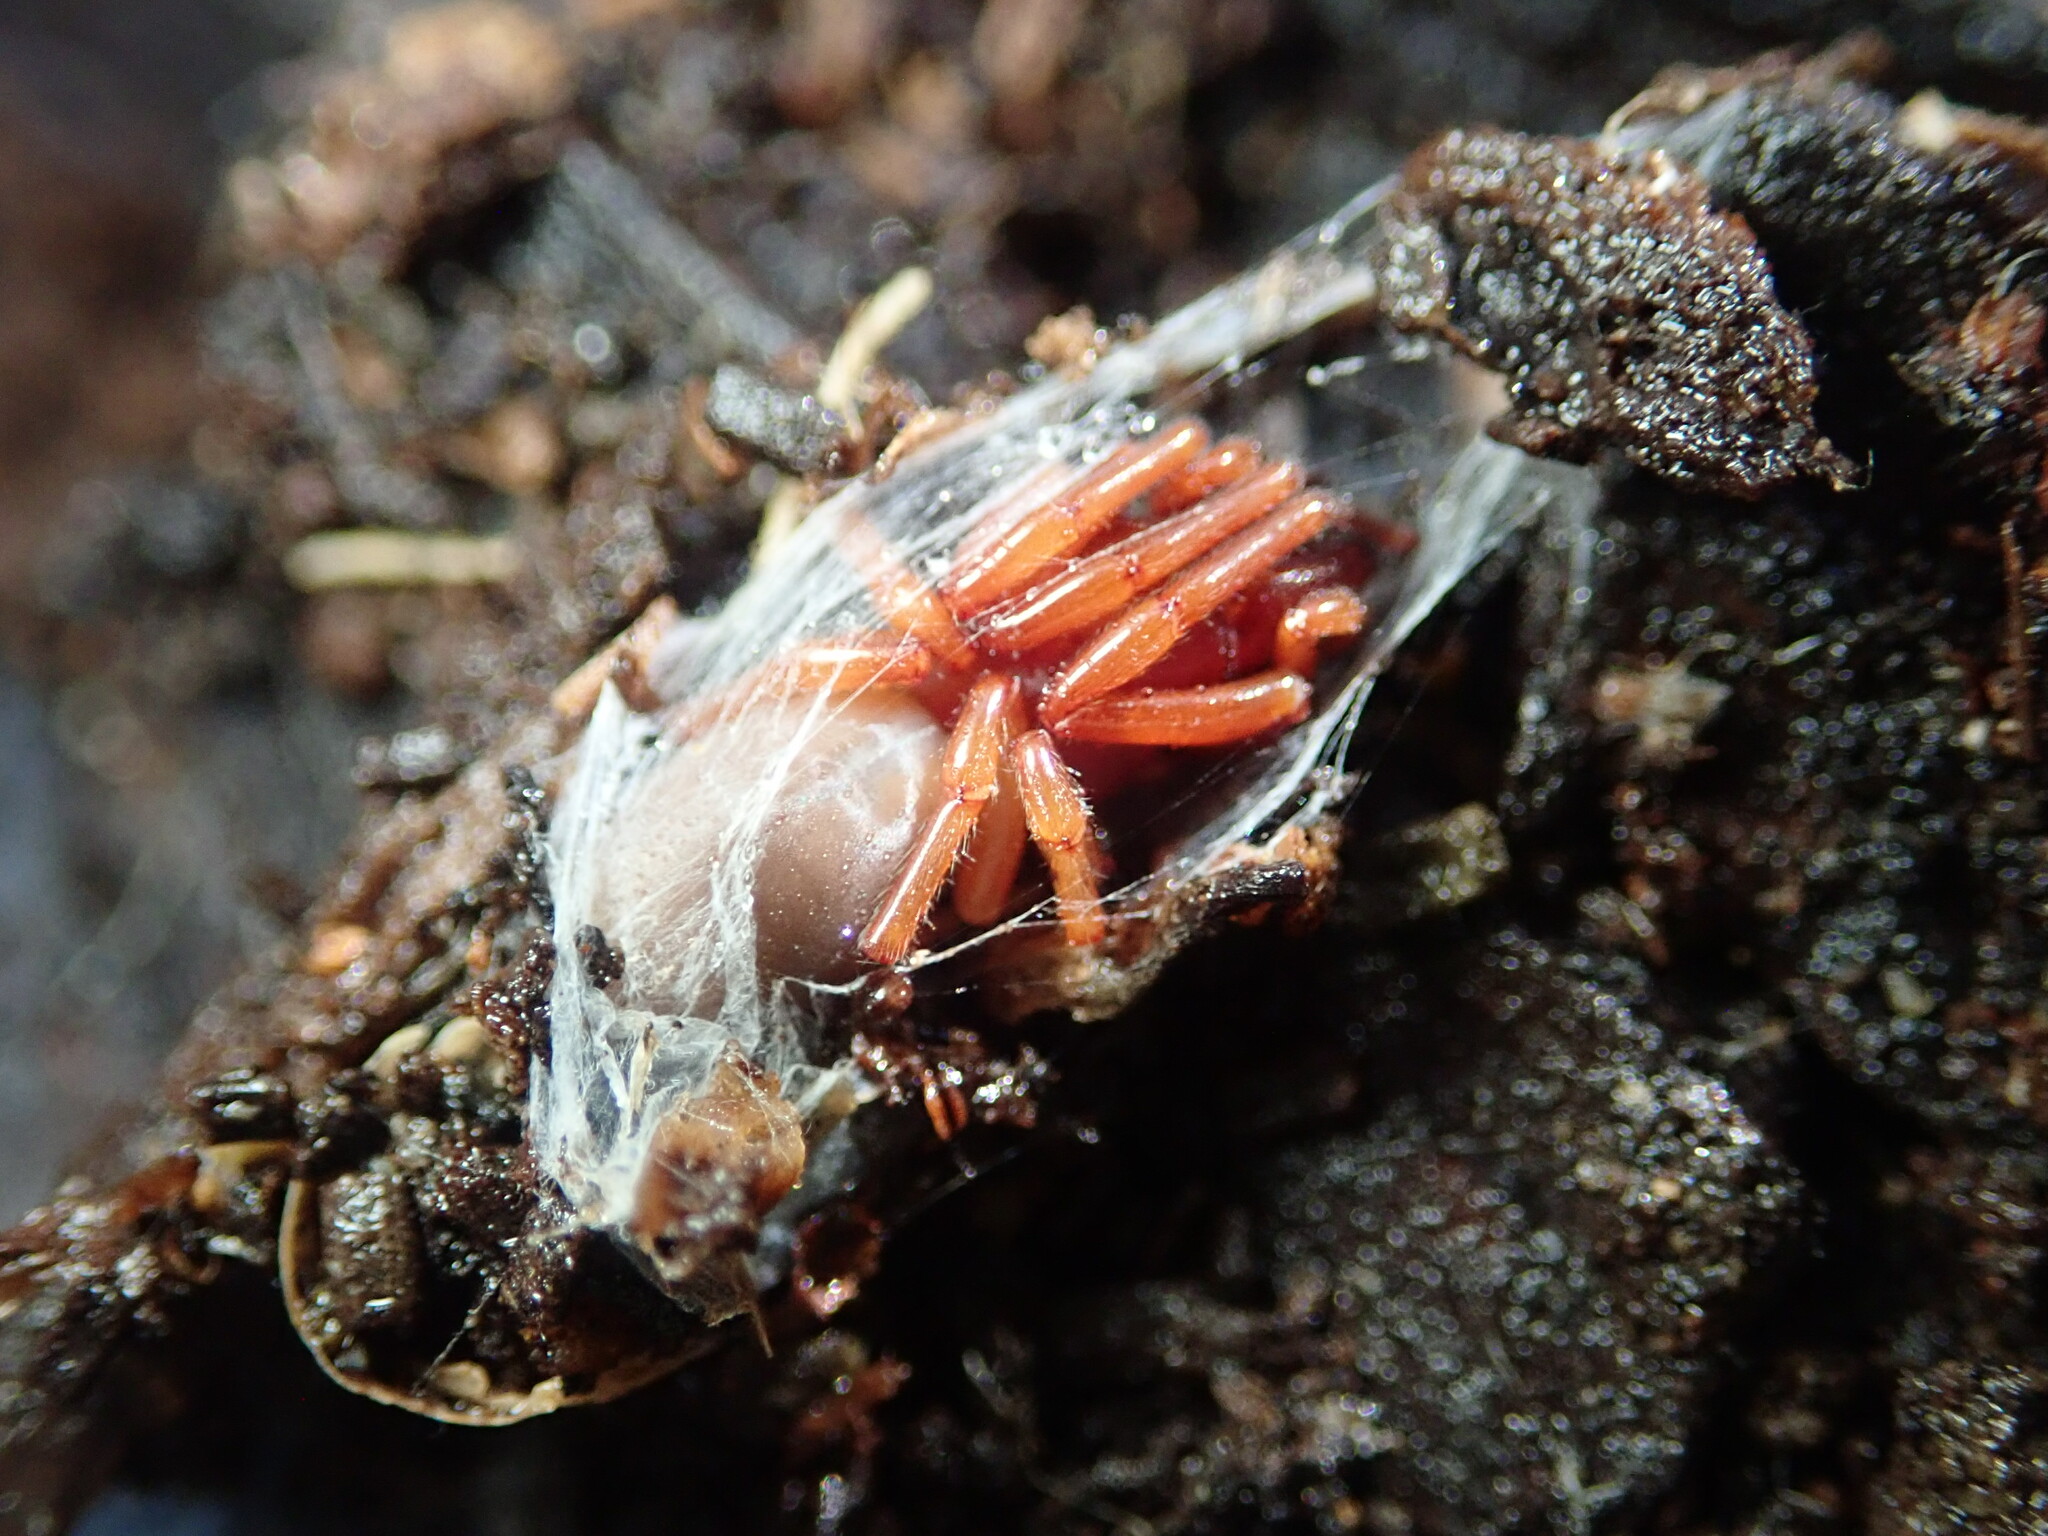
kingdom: Animalia
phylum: Arthropoda
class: Arachnida
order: Araneae
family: Dysderidae
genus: Dysdera
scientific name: Dysdera crocata
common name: Woodlouse spider
